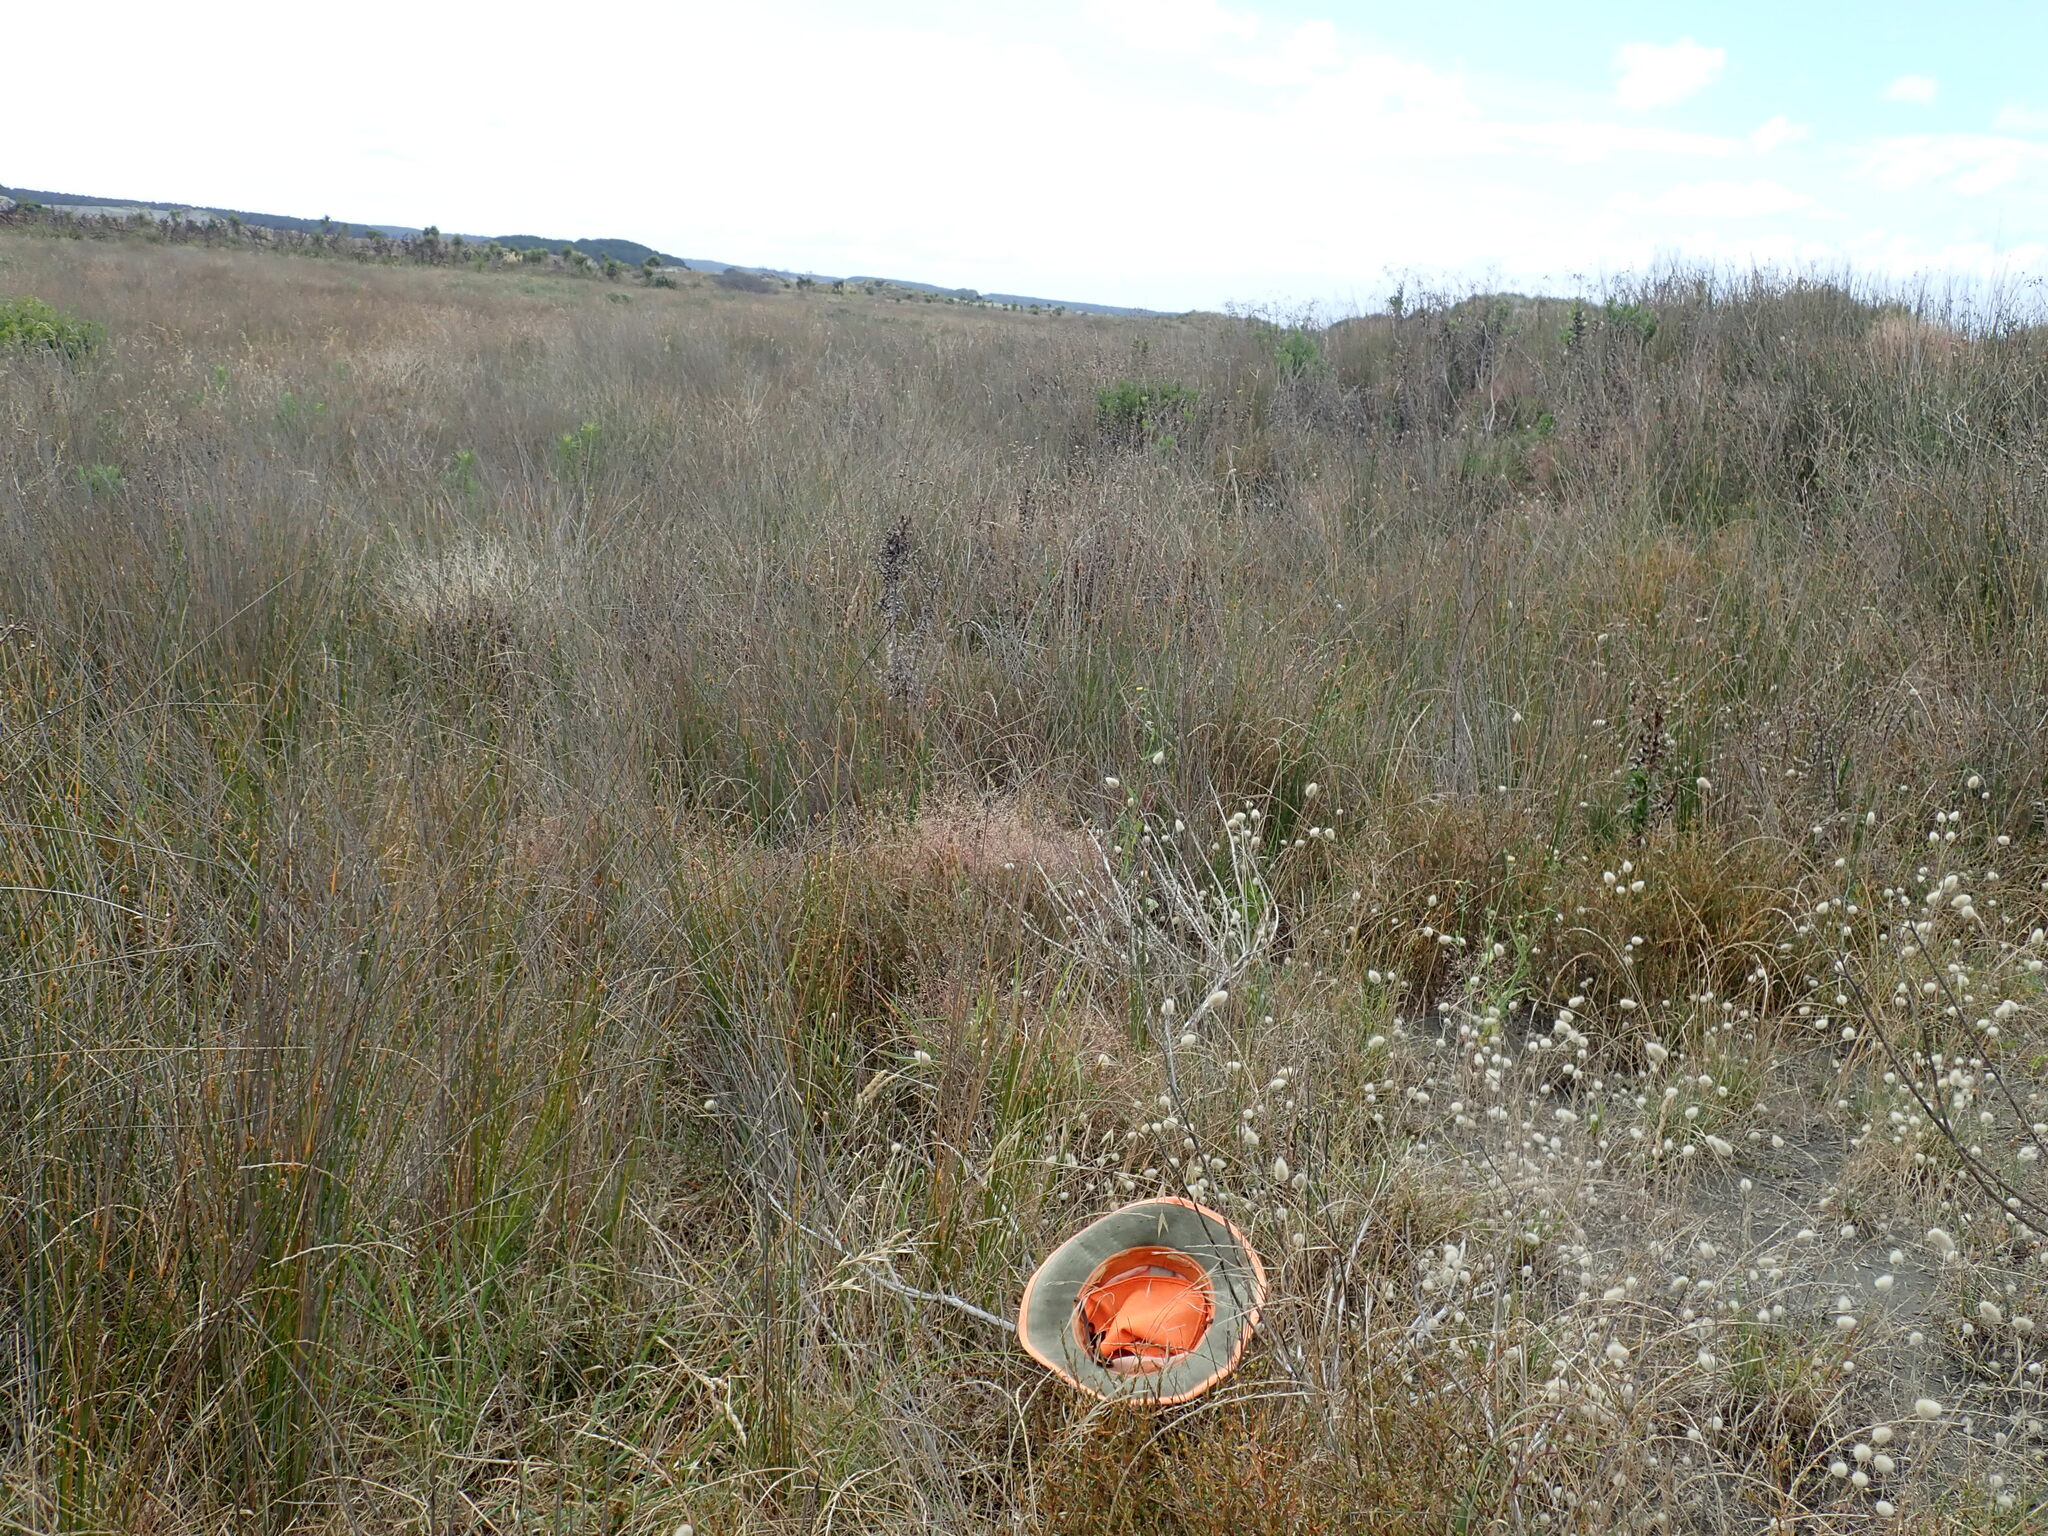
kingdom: Plantae
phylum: Tracheophyta
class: Magnoliopsida
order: Caryophyllales
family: Polygonaceae
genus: Muehlenbeckia
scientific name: Muehlenbeckia complexa
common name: Wireplant
